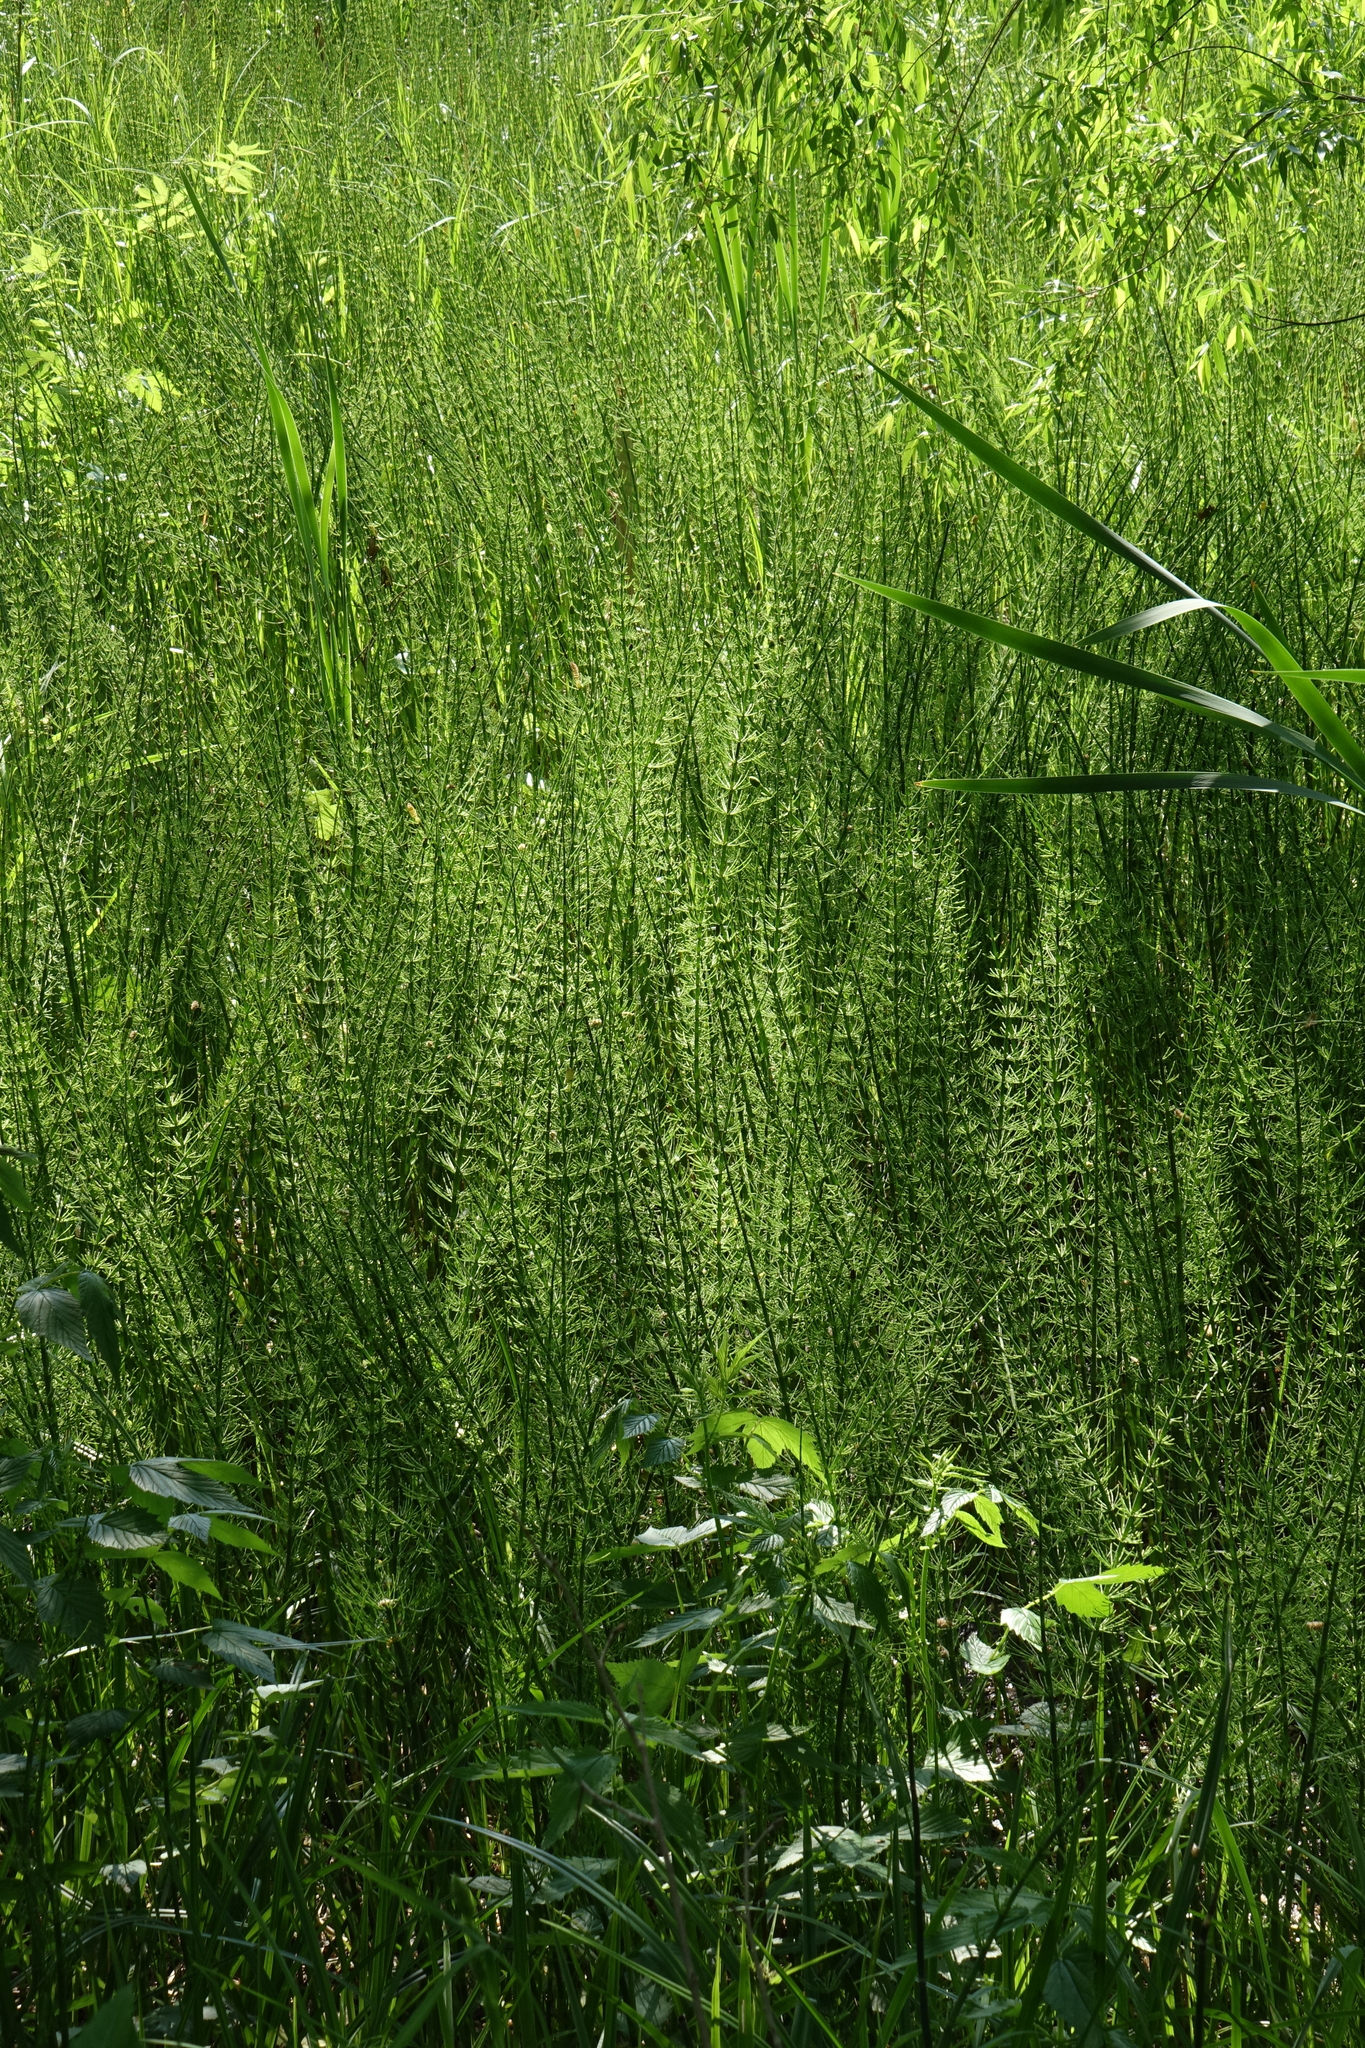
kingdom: Plantae
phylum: Tracheophyta
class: Polypodiopsida
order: Equisetales
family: Equisetaceae
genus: Equisetum
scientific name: Equisetum fluviatile
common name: Water horsetail
